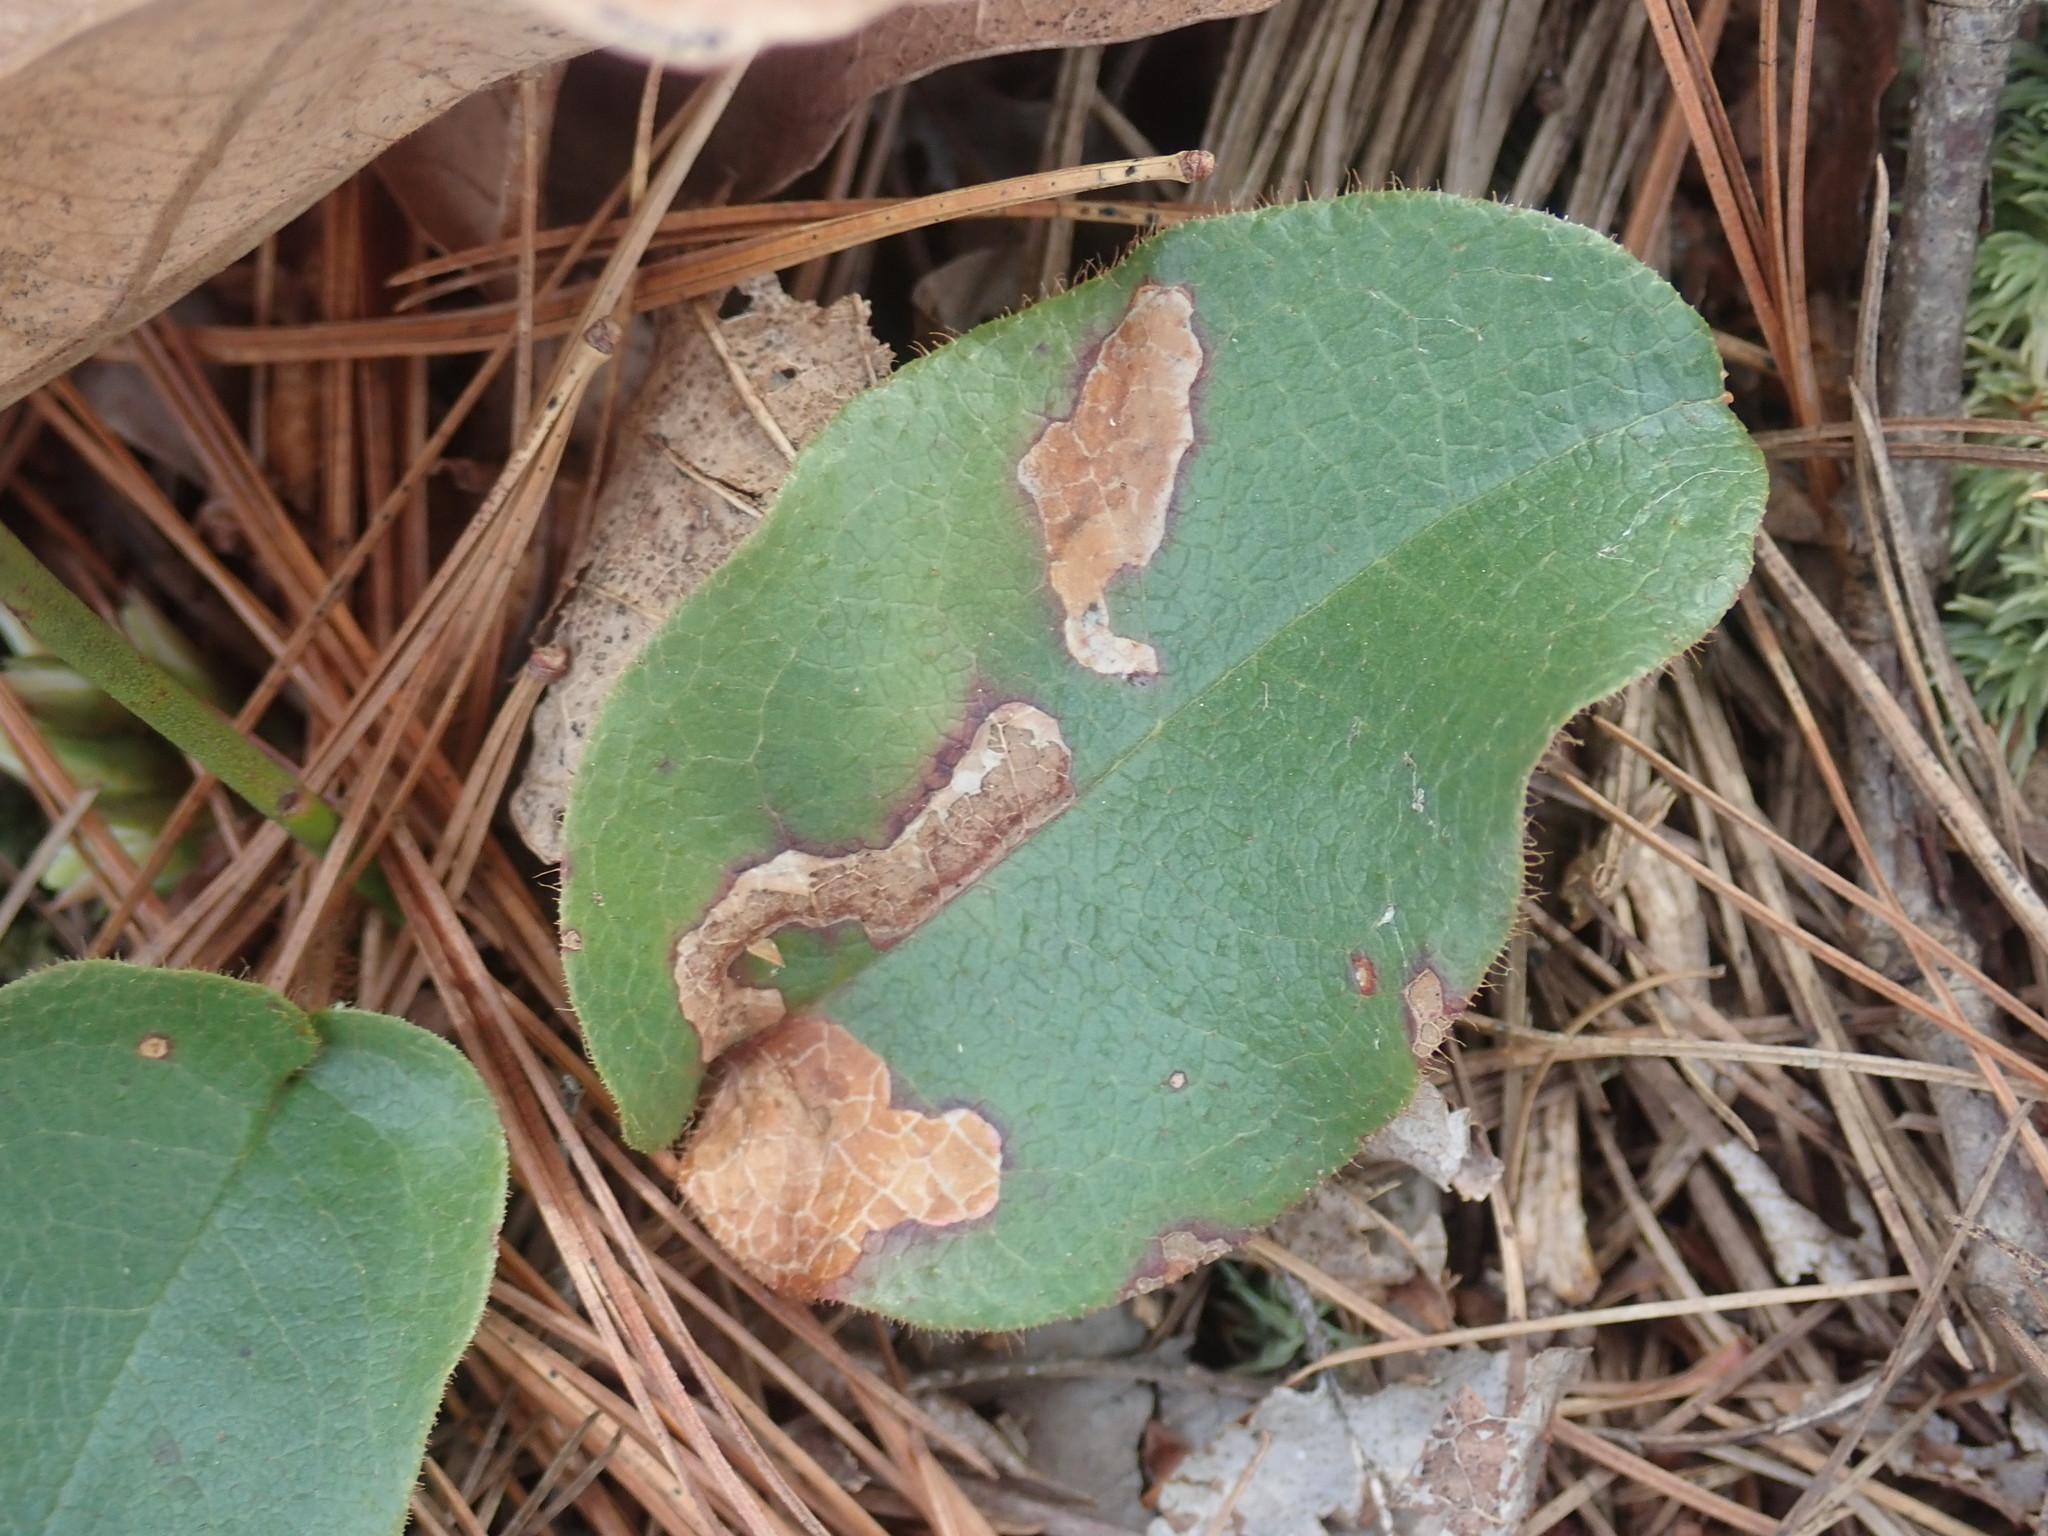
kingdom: Animalia
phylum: Arthropoda
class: Insecta
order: Coleoptera
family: Buprestidae
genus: Brachys
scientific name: Brachys
